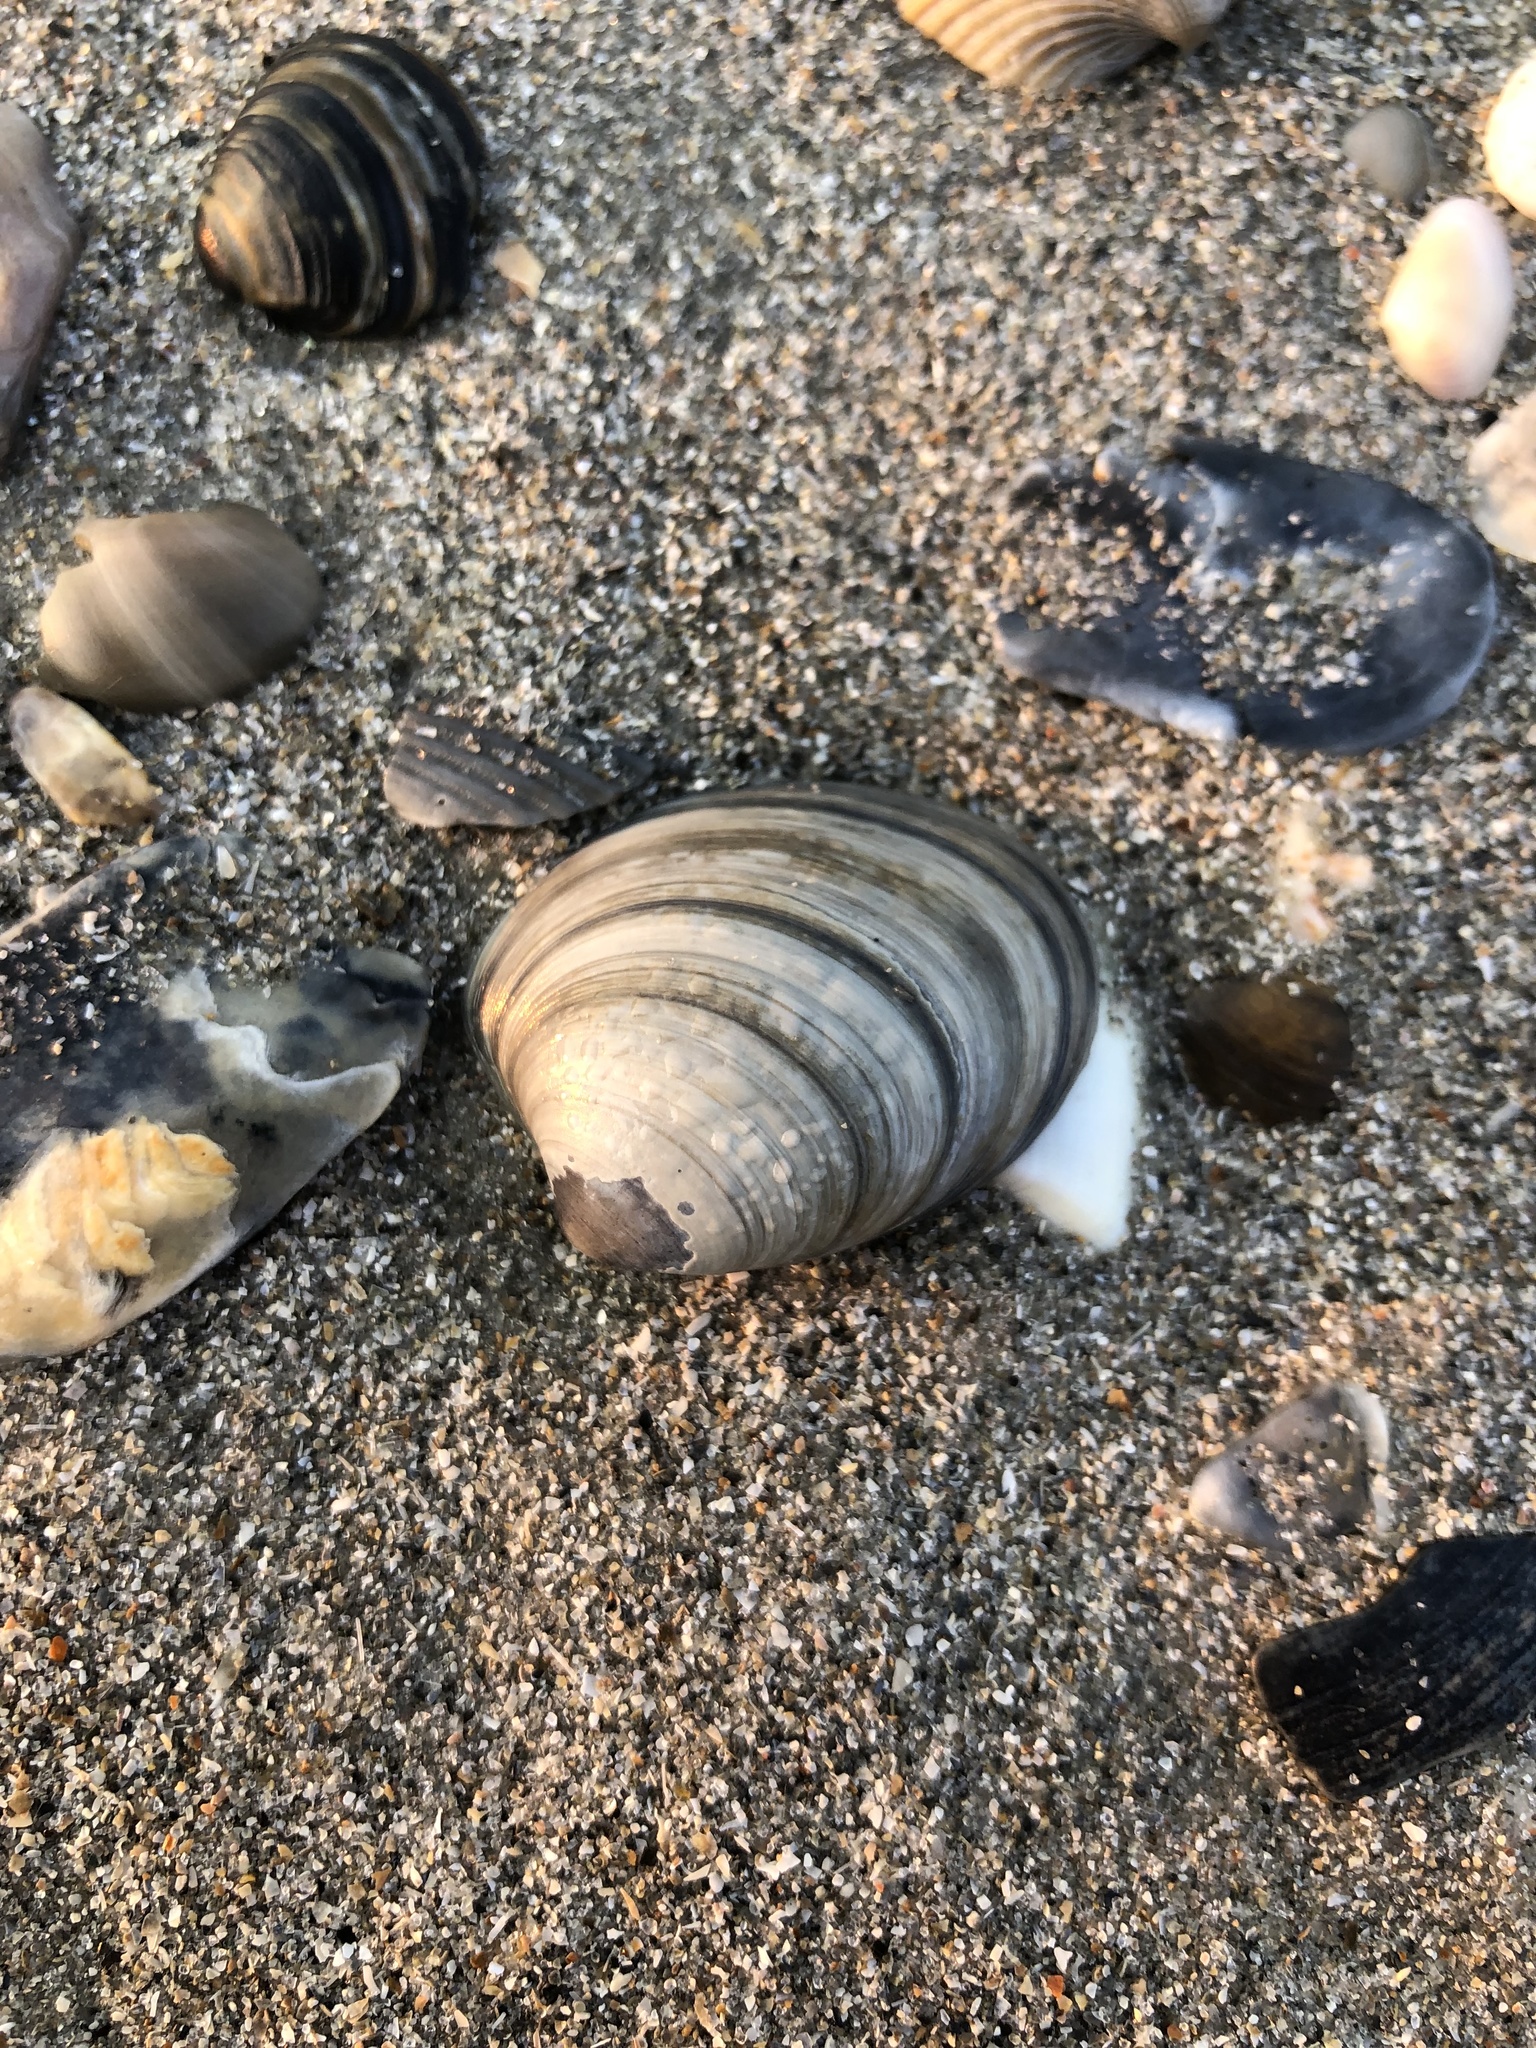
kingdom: Animalia
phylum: Mollusca
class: Bivalvia
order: Venerida
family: Veneridae
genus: Agriopoma
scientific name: Agriopoma morrhuanum
